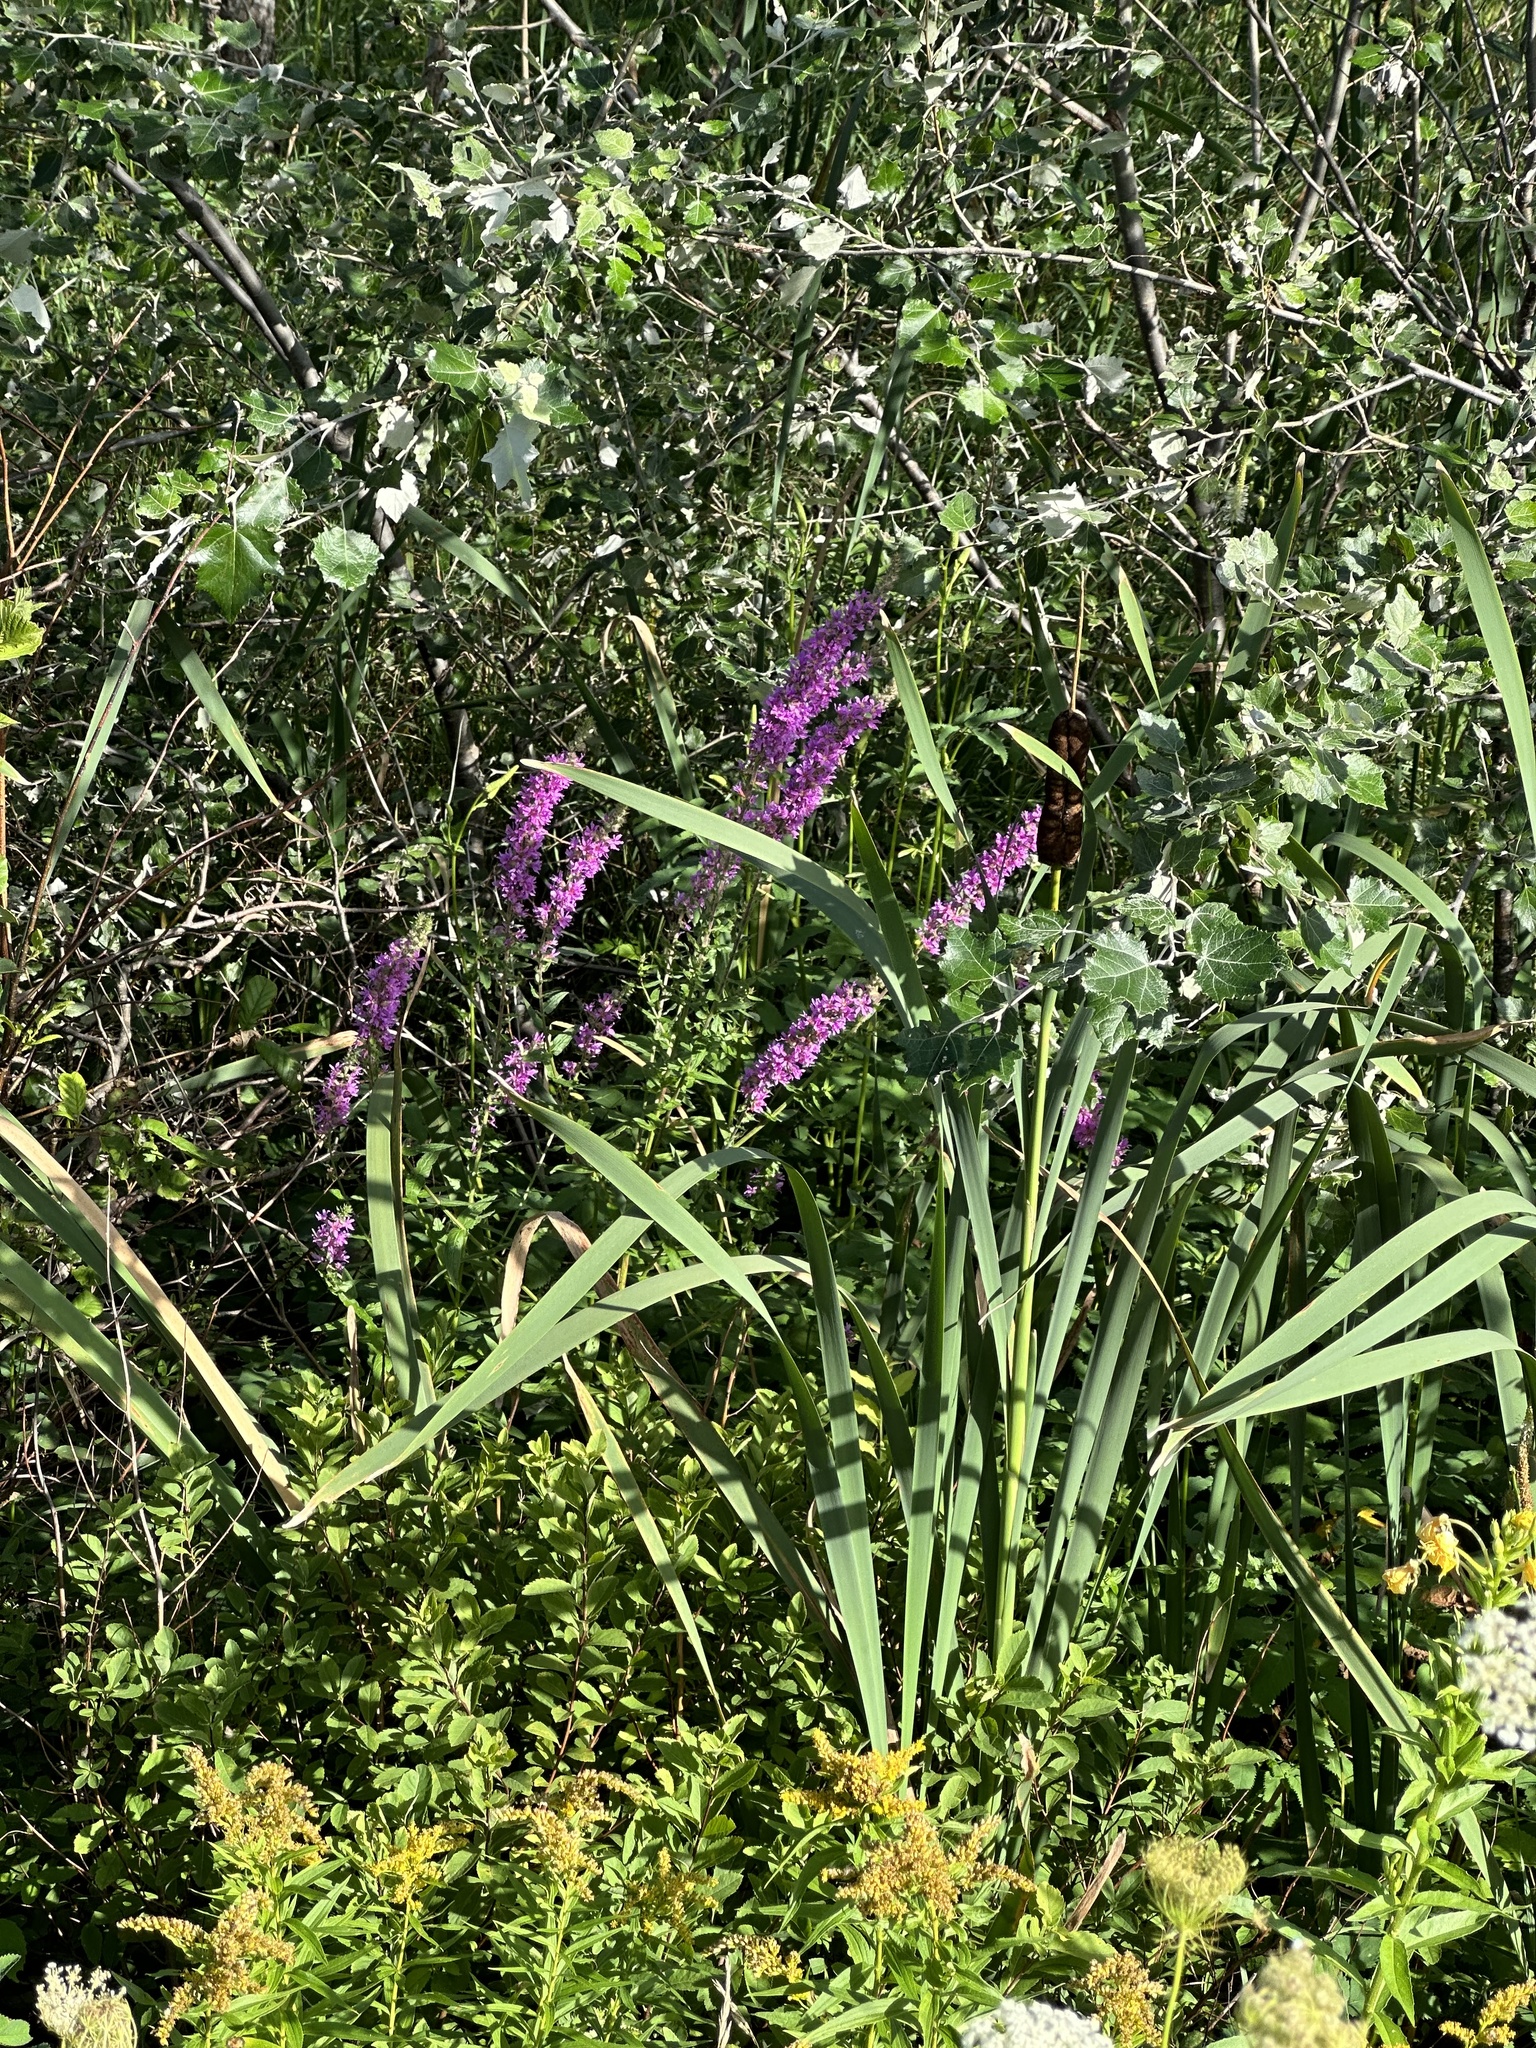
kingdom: Plantae
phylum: Tracheophyta
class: Magnoliopsida
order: Myrtales
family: Lythraceae
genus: Lythrum
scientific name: Lythrum salicaria
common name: Purple loosestrife
